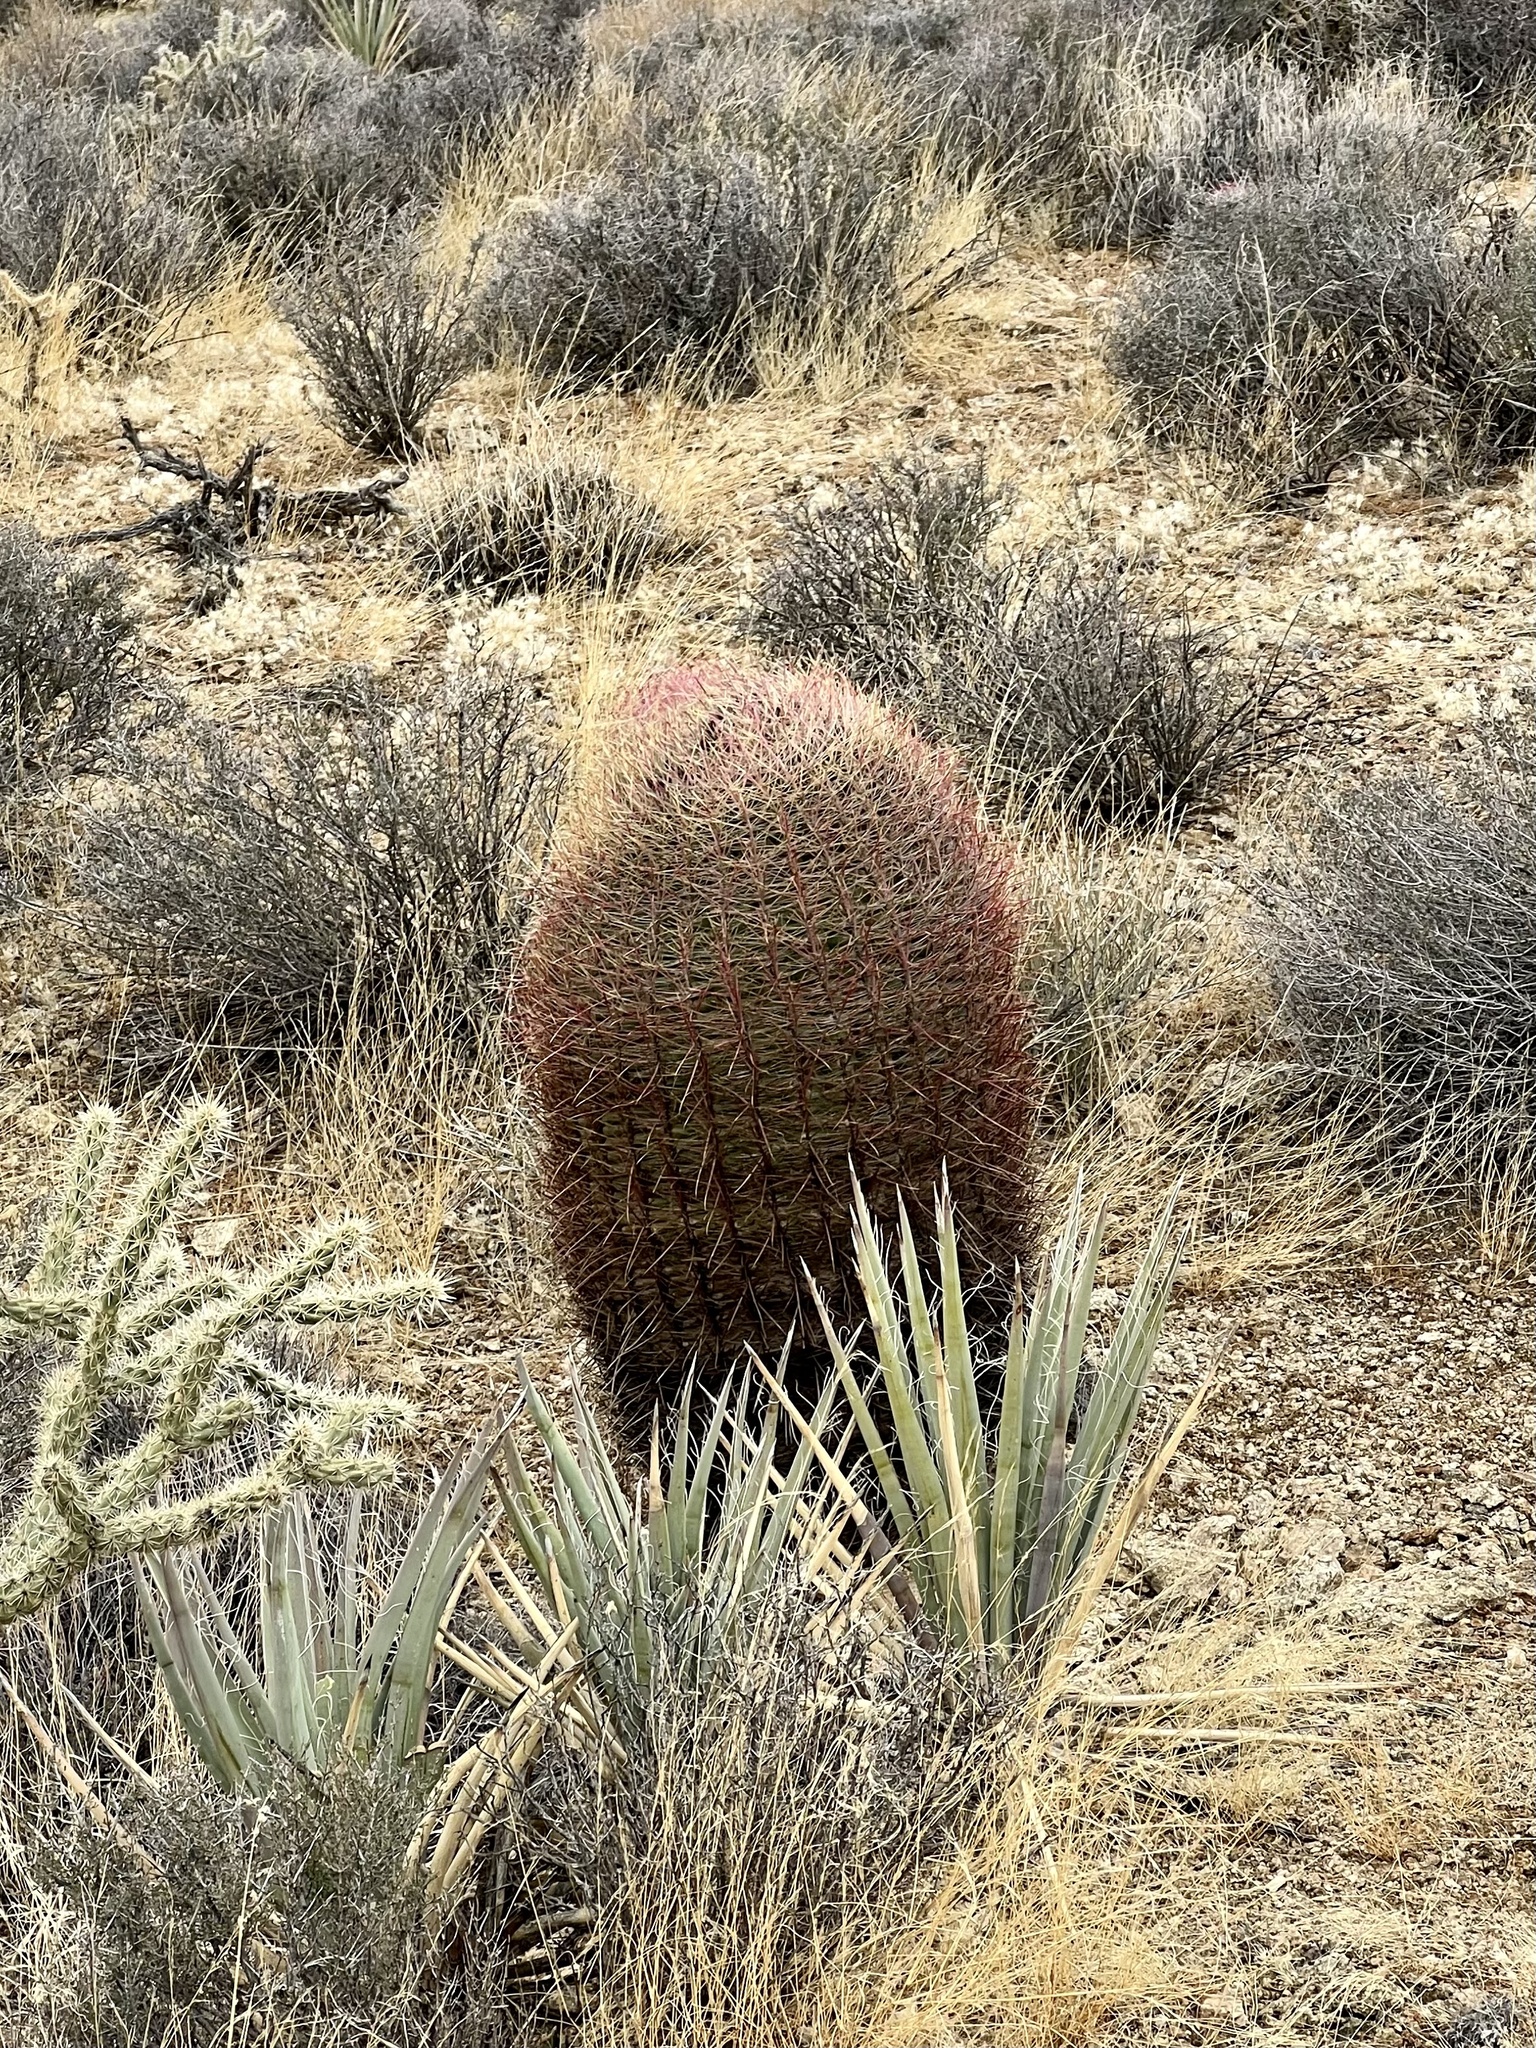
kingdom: Plantae
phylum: Tracheophyta
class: Magnoliopsida
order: Caryophyllales
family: Cactaceae
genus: Ferocactus
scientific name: Ferocactus cylindraceus
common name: California barrel cactus
